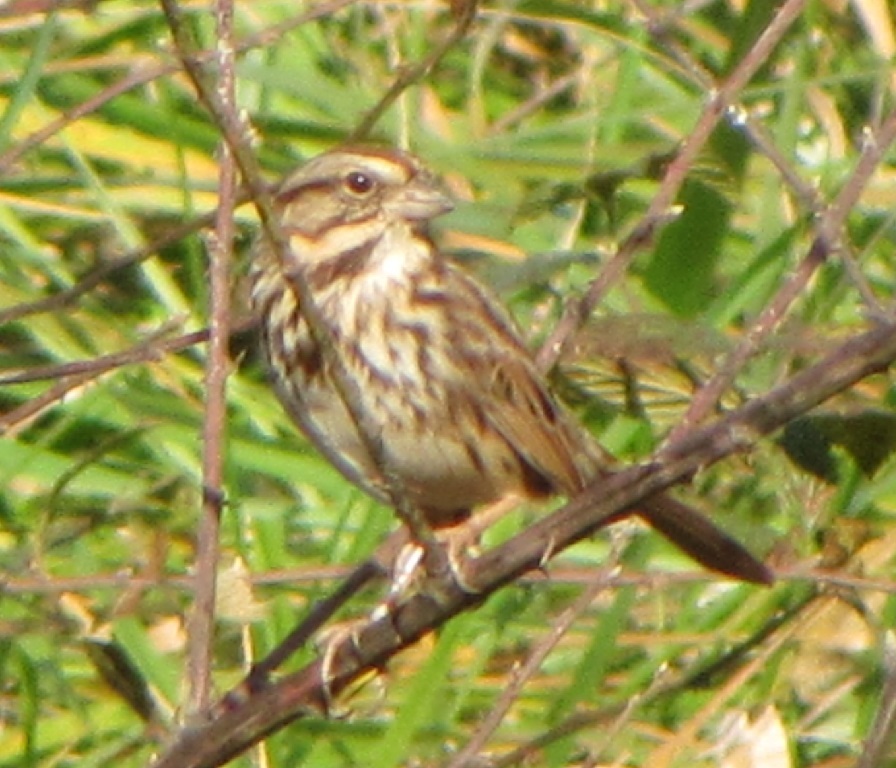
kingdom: Animalia
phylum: Chordata
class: Aves
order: Passeriformes
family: Passerellidae
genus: Melospiza
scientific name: Melospiza melodia
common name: Song sparrow
